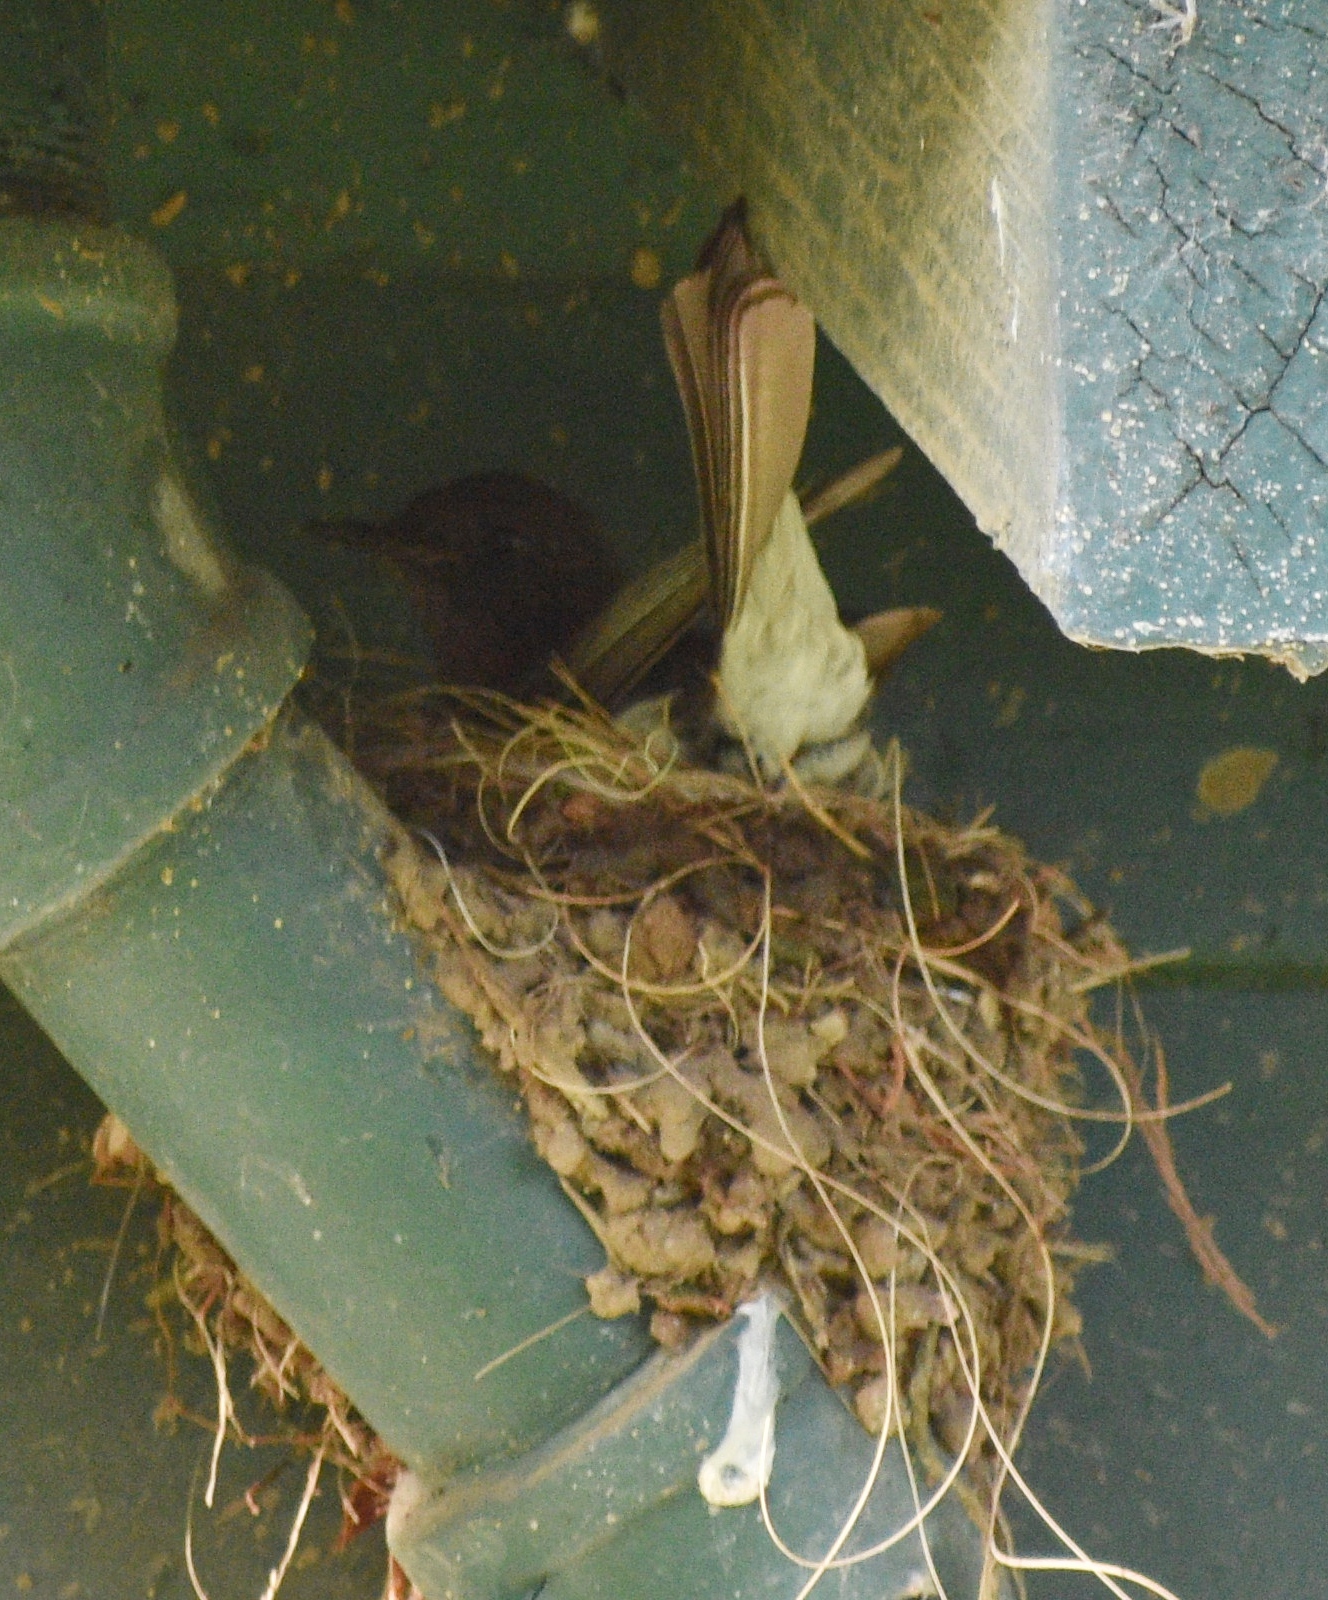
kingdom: Animalia
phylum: Chordata
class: Aves
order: Passeriformes
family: Tyrannidae
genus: Sayornis
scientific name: Sayornis nigricans
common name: Black phoebe
